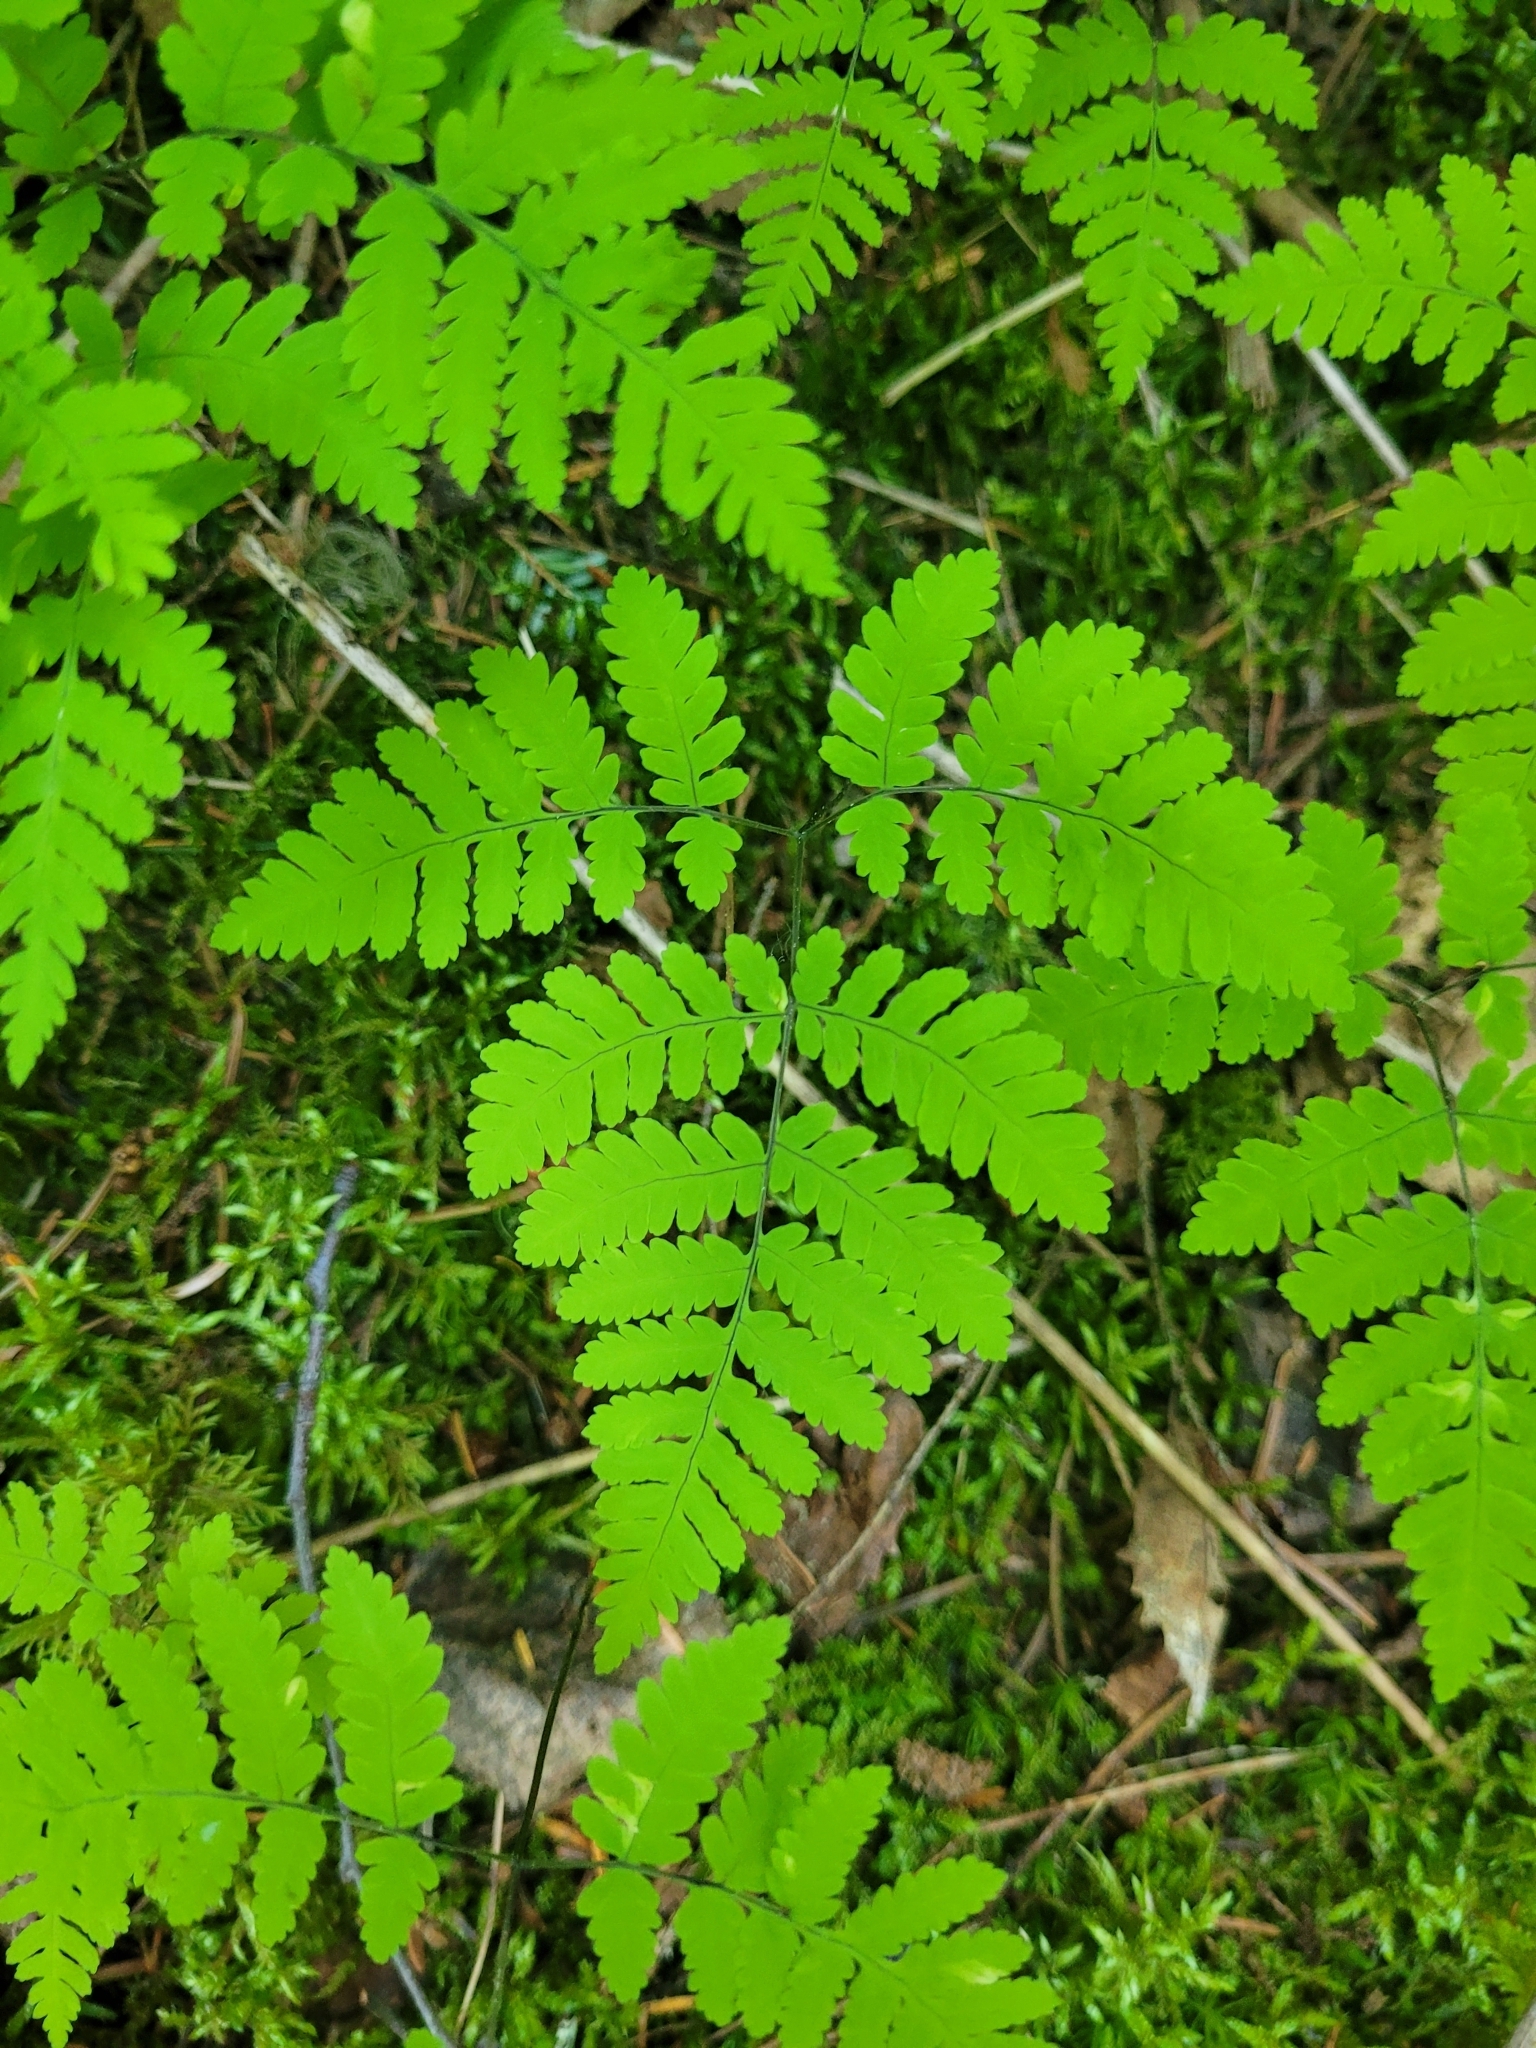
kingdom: Plantae
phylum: Tracheophyta
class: Polypodiopsida
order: Polypodiales
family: Cystopteridaceae
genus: Gymnocarpium
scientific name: Gymnocarpium dryopteris
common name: Oak fern
